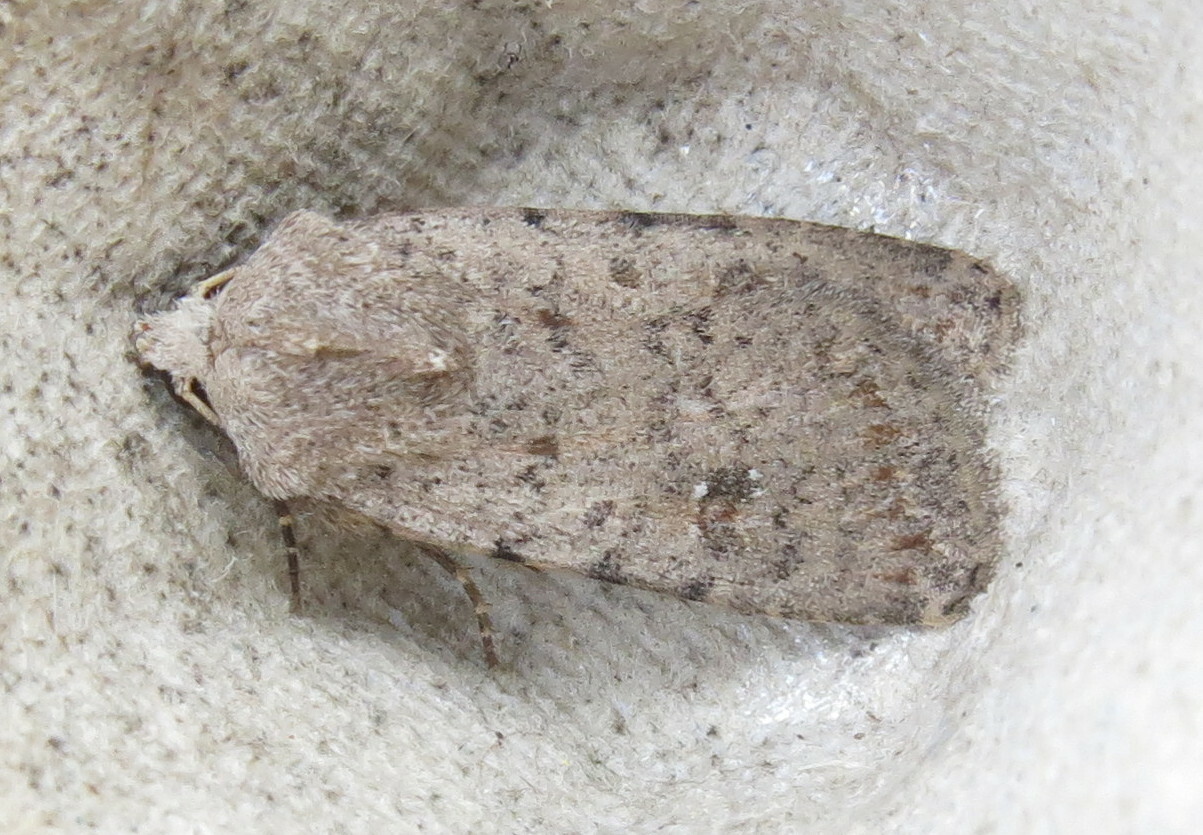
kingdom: Animalia
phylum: Arthropoda
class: Insecta
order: Lepidoptera
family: Noctuidae
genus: Caradrina
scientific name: Caradrina clavipalpis
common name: Pale mottled willow
